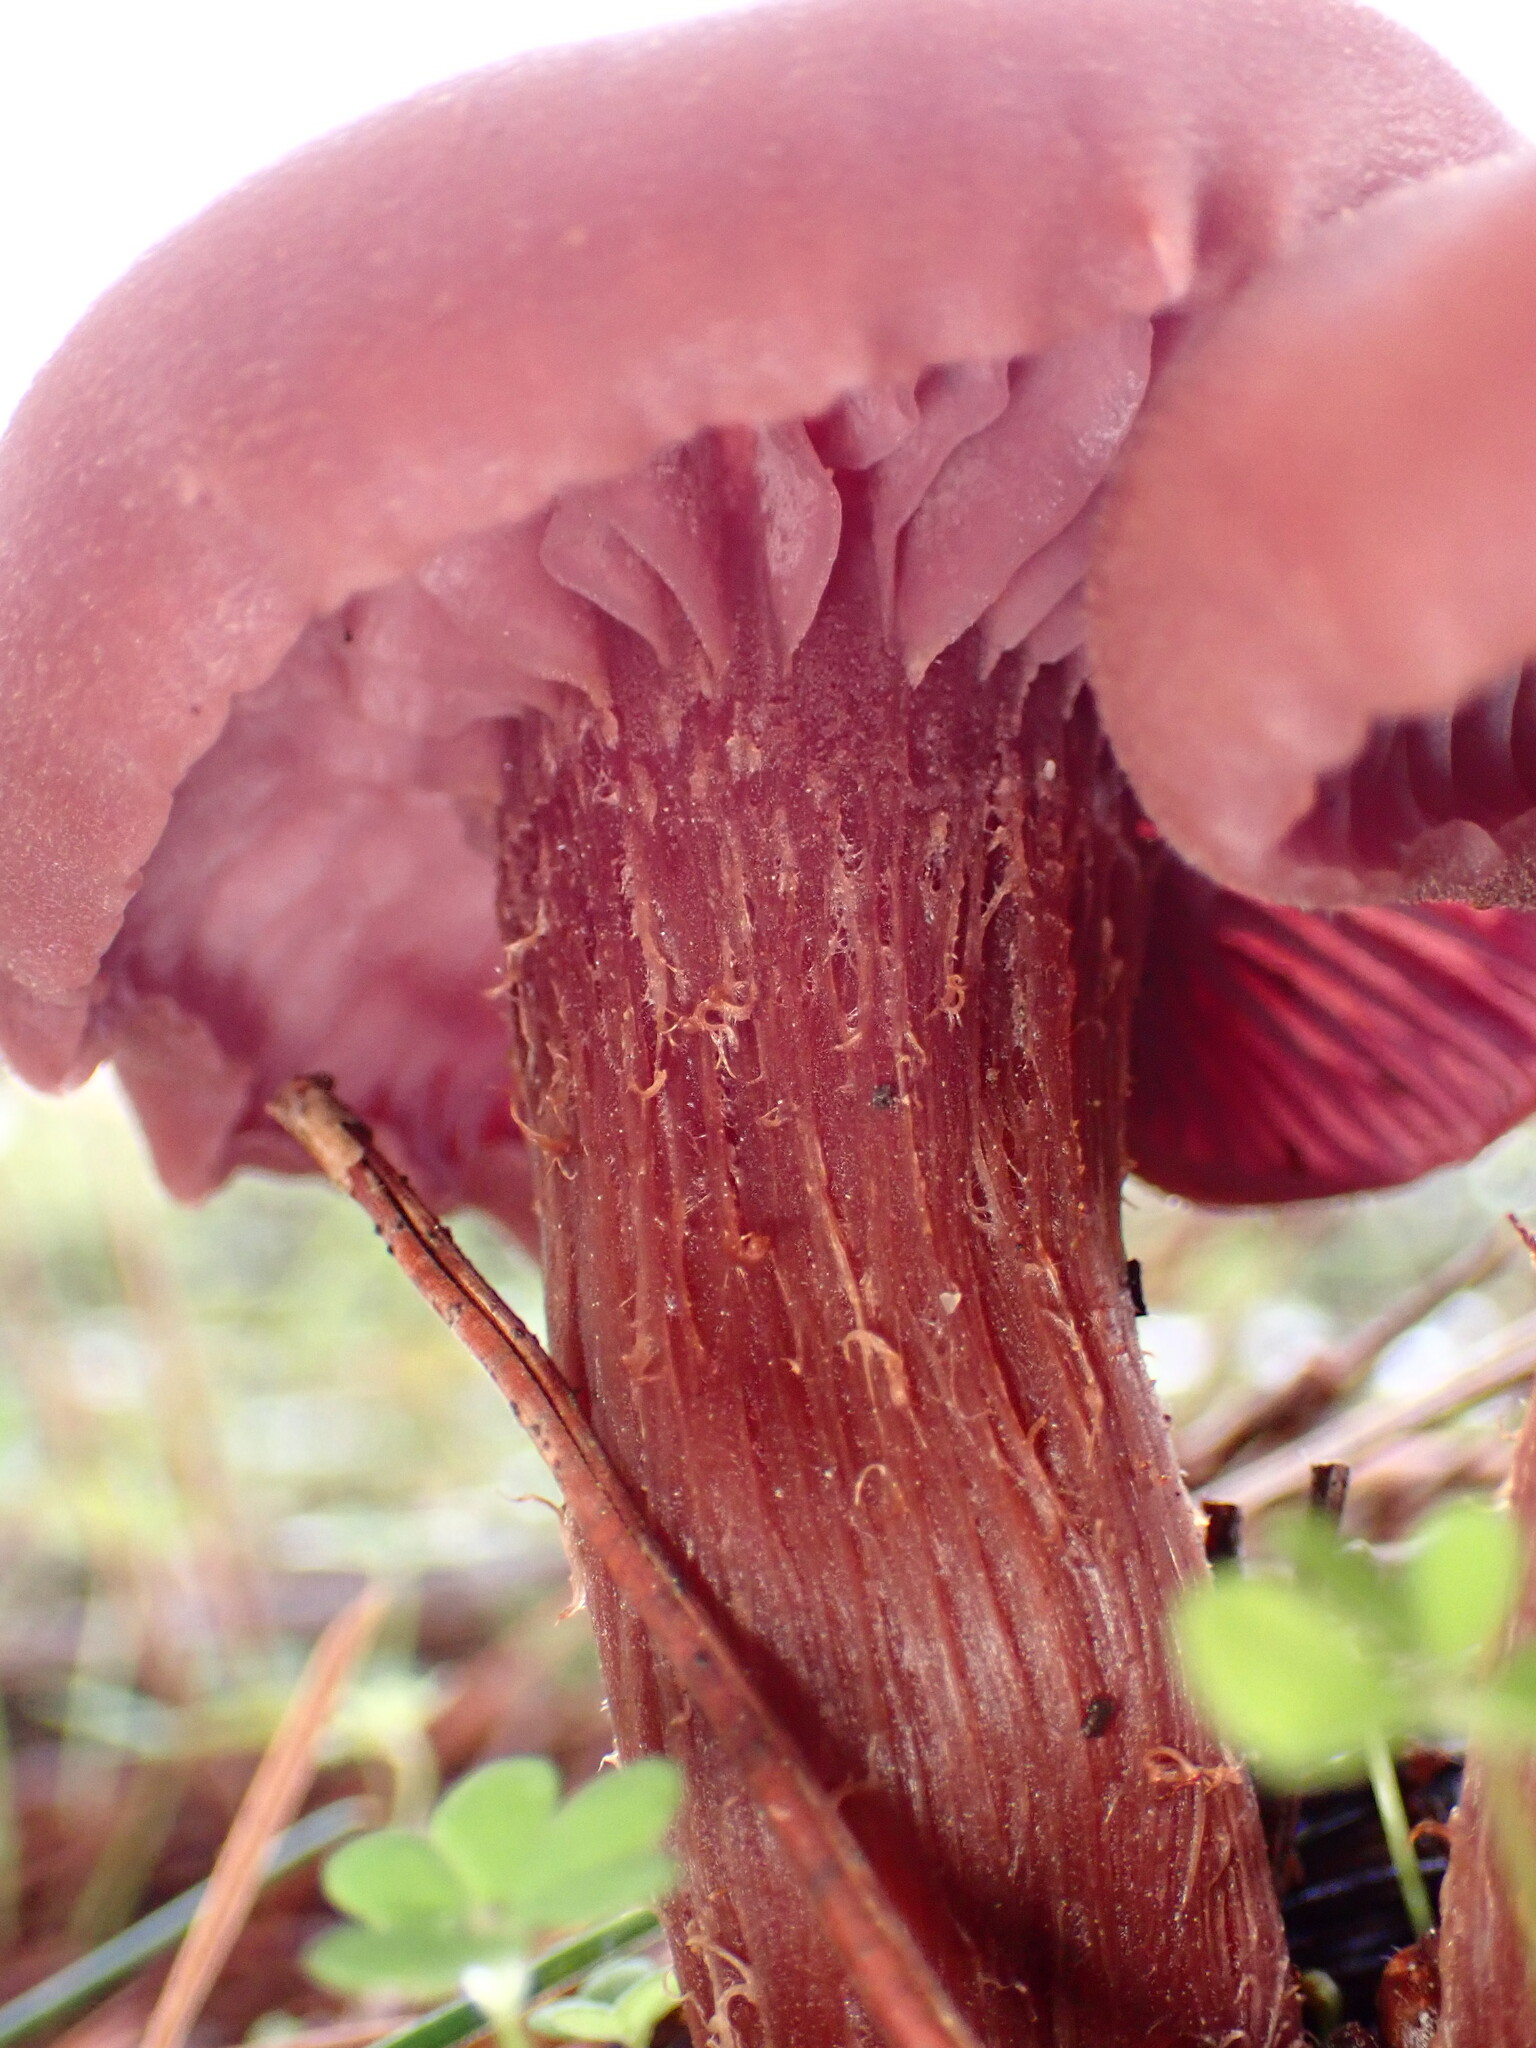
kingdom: Fungi
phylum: Basidiomycota
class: Agaricomycetes
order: Agaricales
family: Hydnangiaceae
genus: Laccaria
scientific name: Laccaria amethysteo-occidentalis
